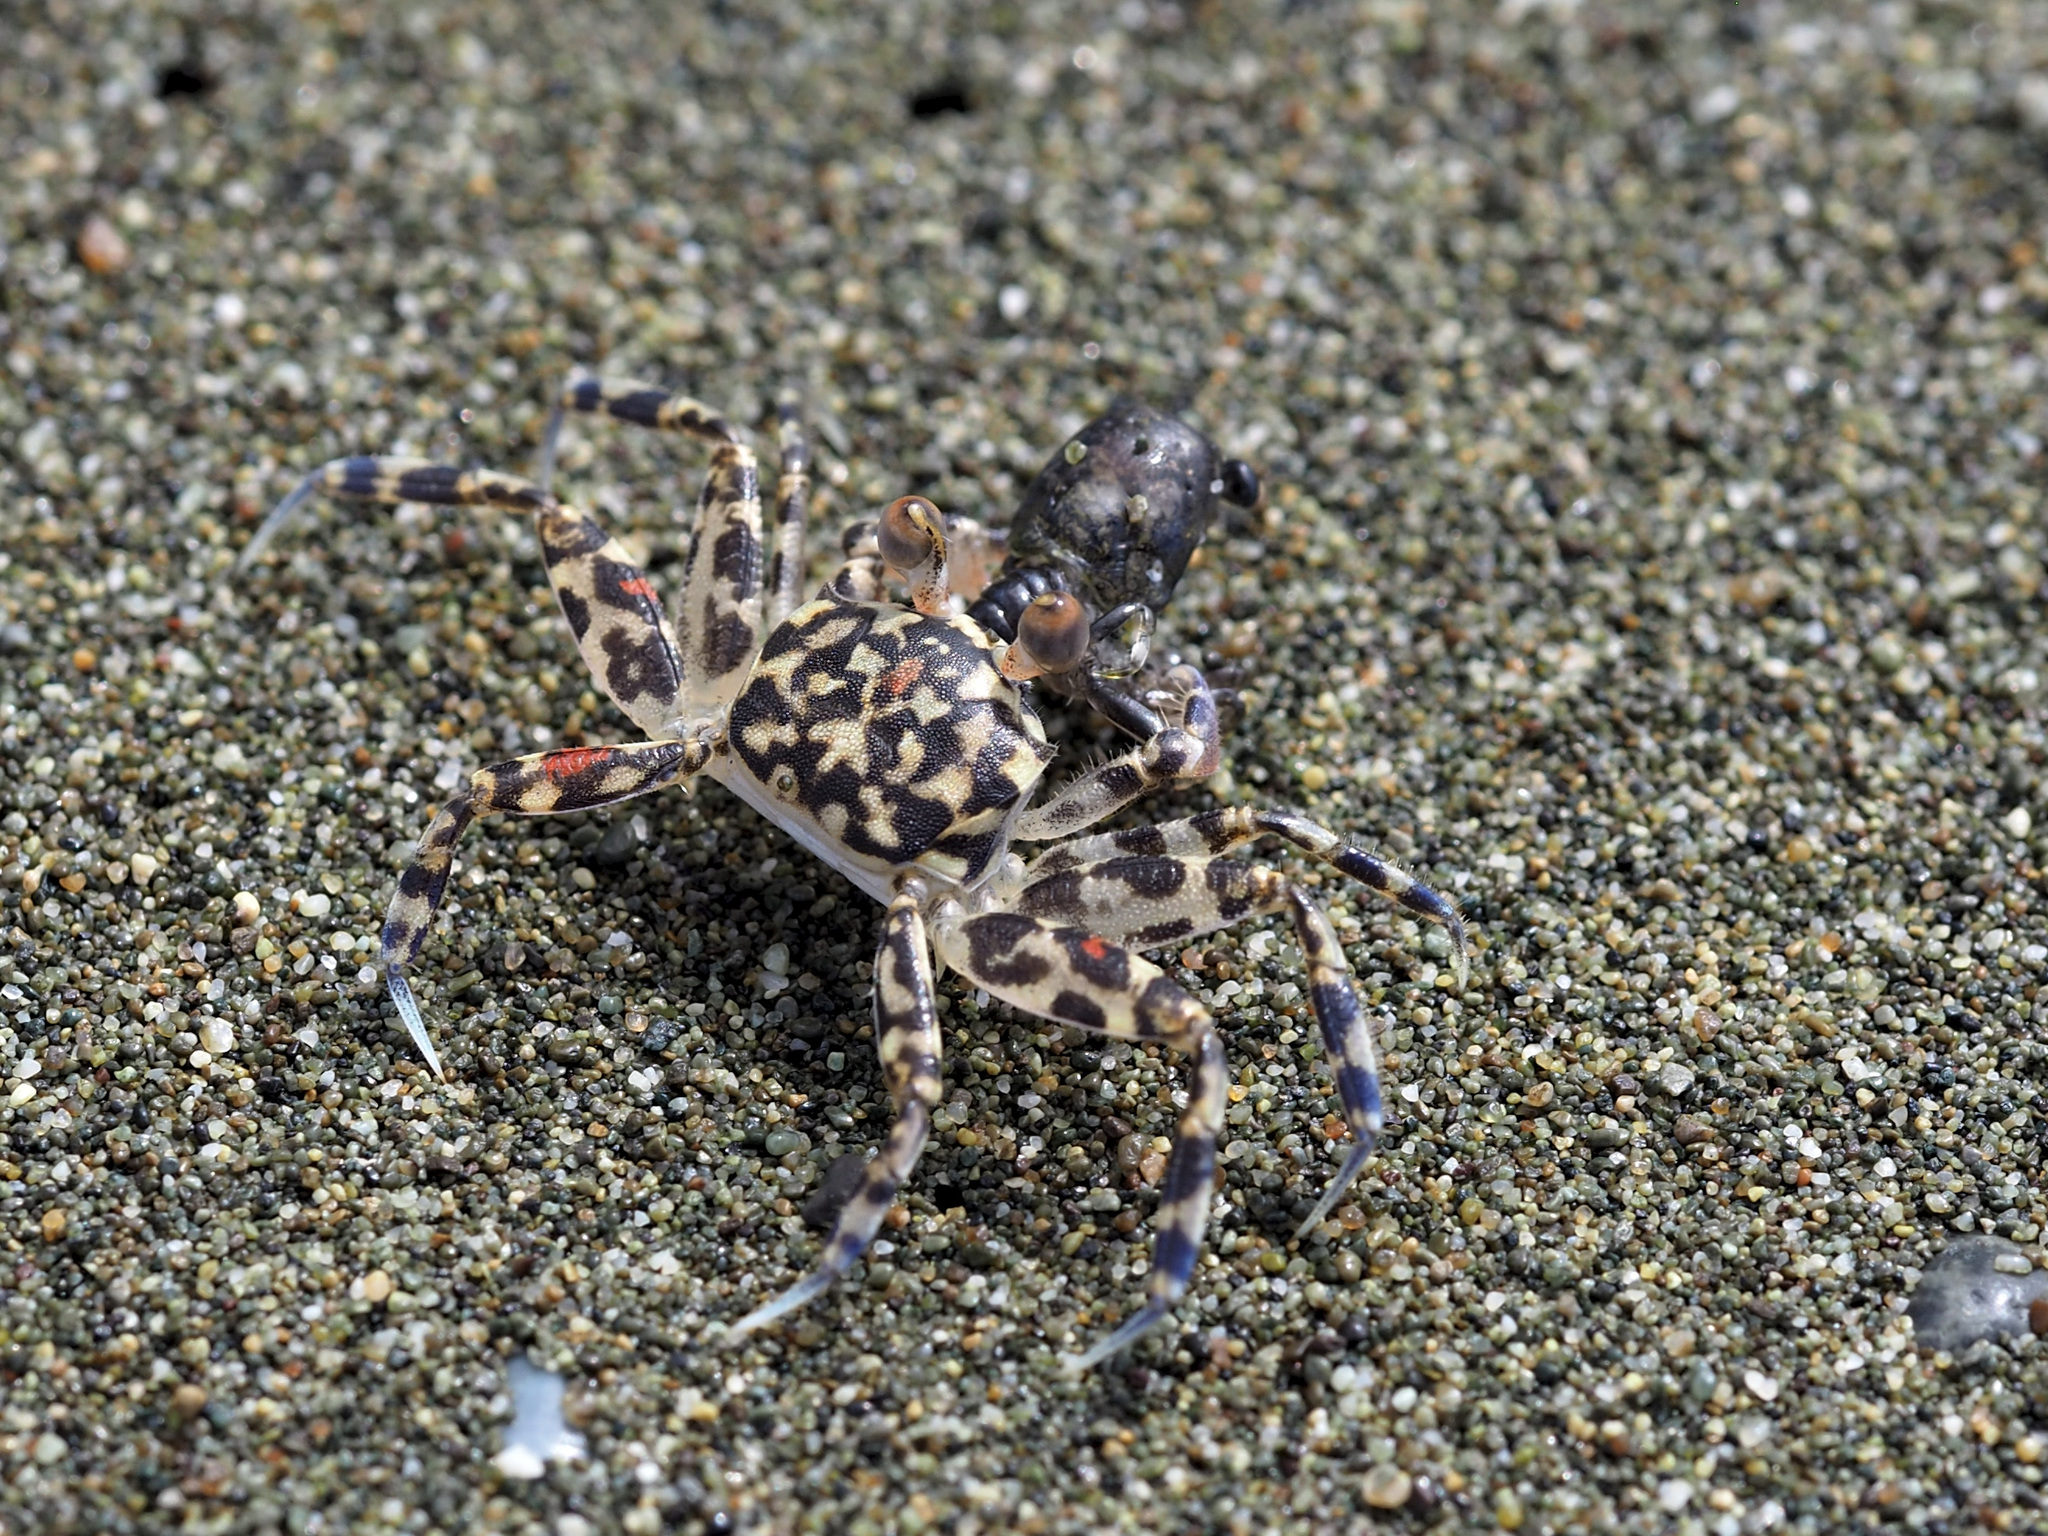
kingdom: Animalia
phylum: Arthropoda
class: Malacostraca
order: Decapoda
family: Ocypodidae
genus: Ocypode
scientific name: Ocypode occidentalis
